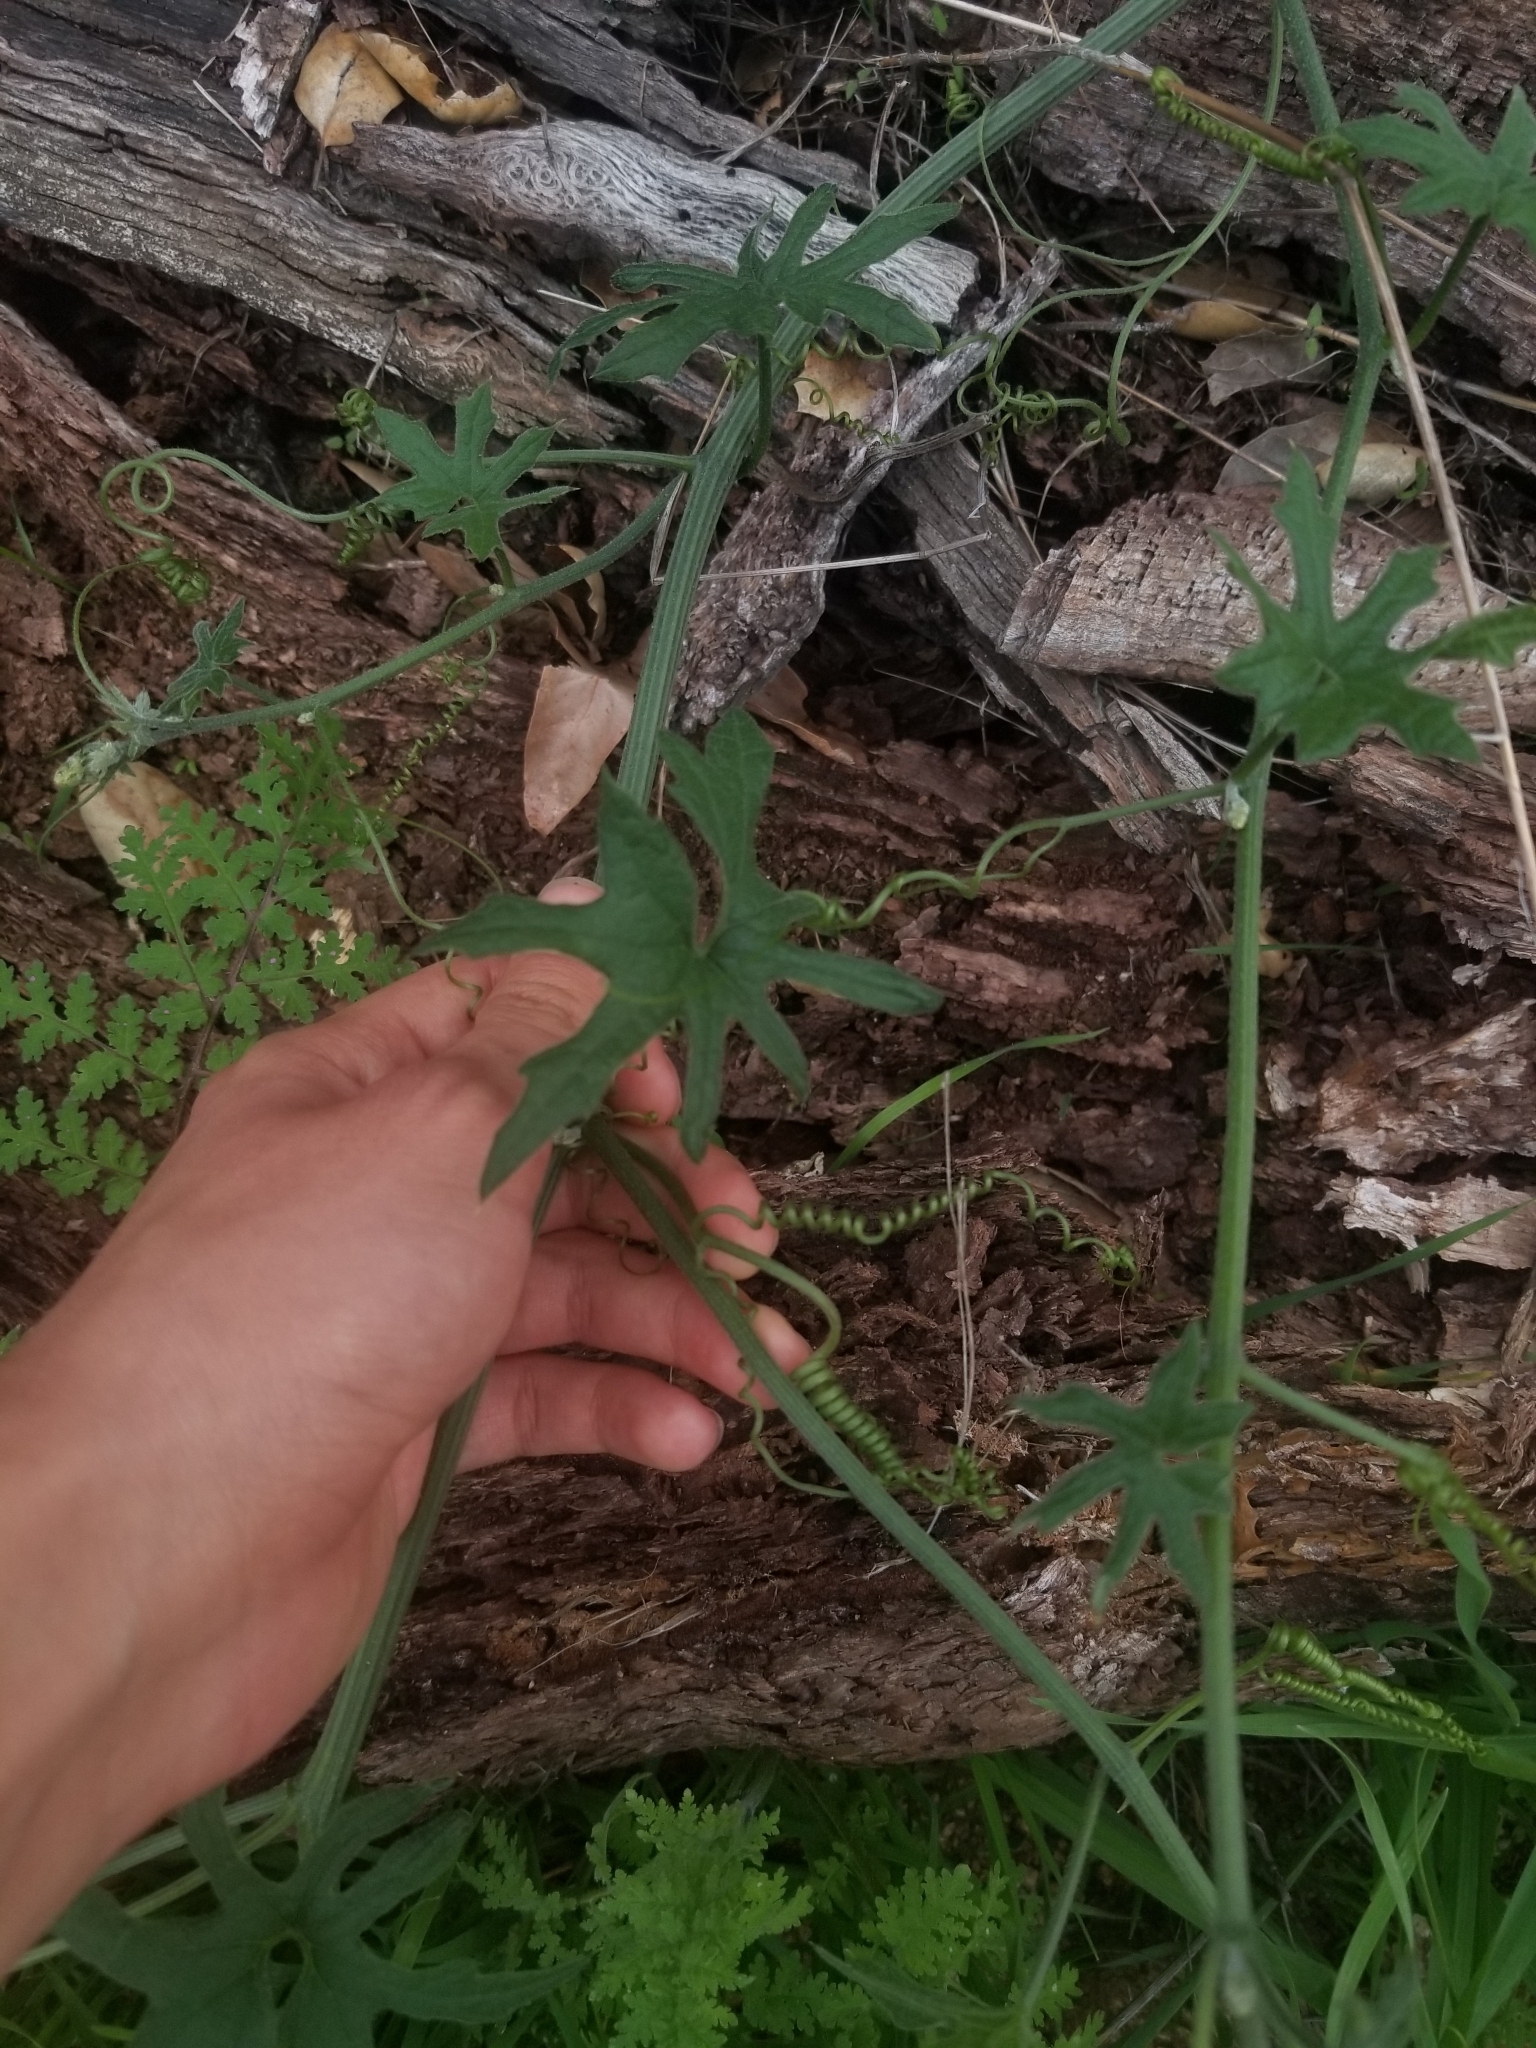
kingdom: Plantae
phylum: Tracheophyta
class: Magnoliopsida
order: Cucurbitales
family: Cucurbitaceae
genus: Marah
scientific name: Marah macrocarpa
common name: Cucamonga manroot
